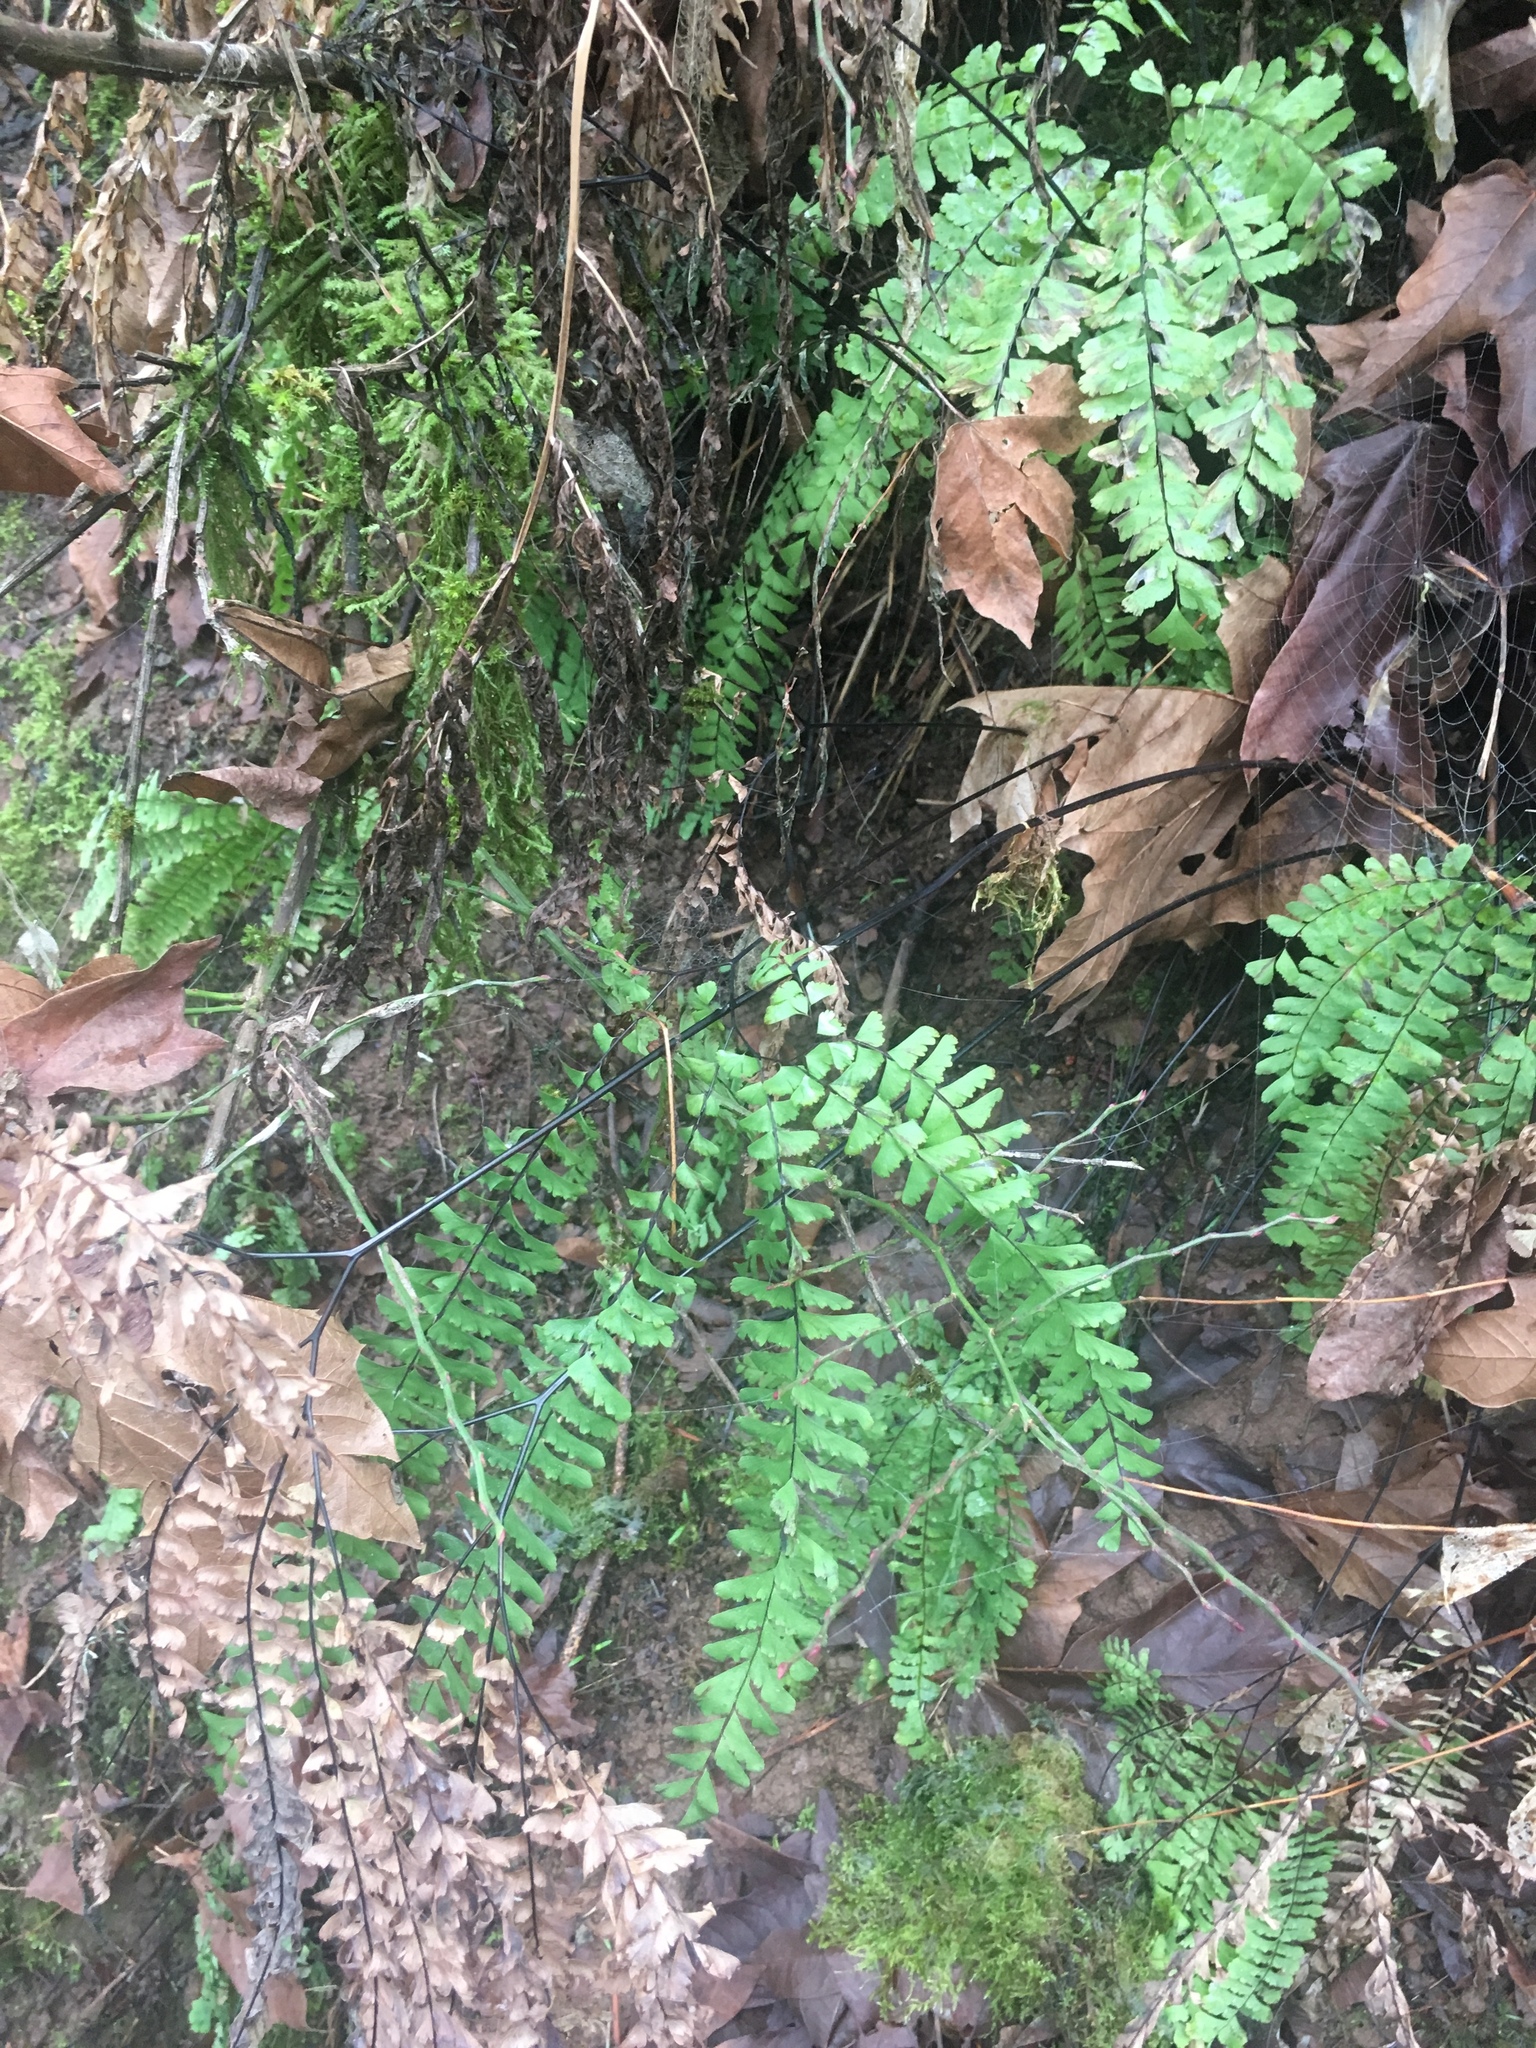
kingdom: Plantae
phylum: Tracheophyta
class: Polypodiopsida
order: Polypodiales
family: Pteridaceae
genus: Adiantum
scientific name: Adiantum aleuticum
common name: Aleutian maidenhair fern
